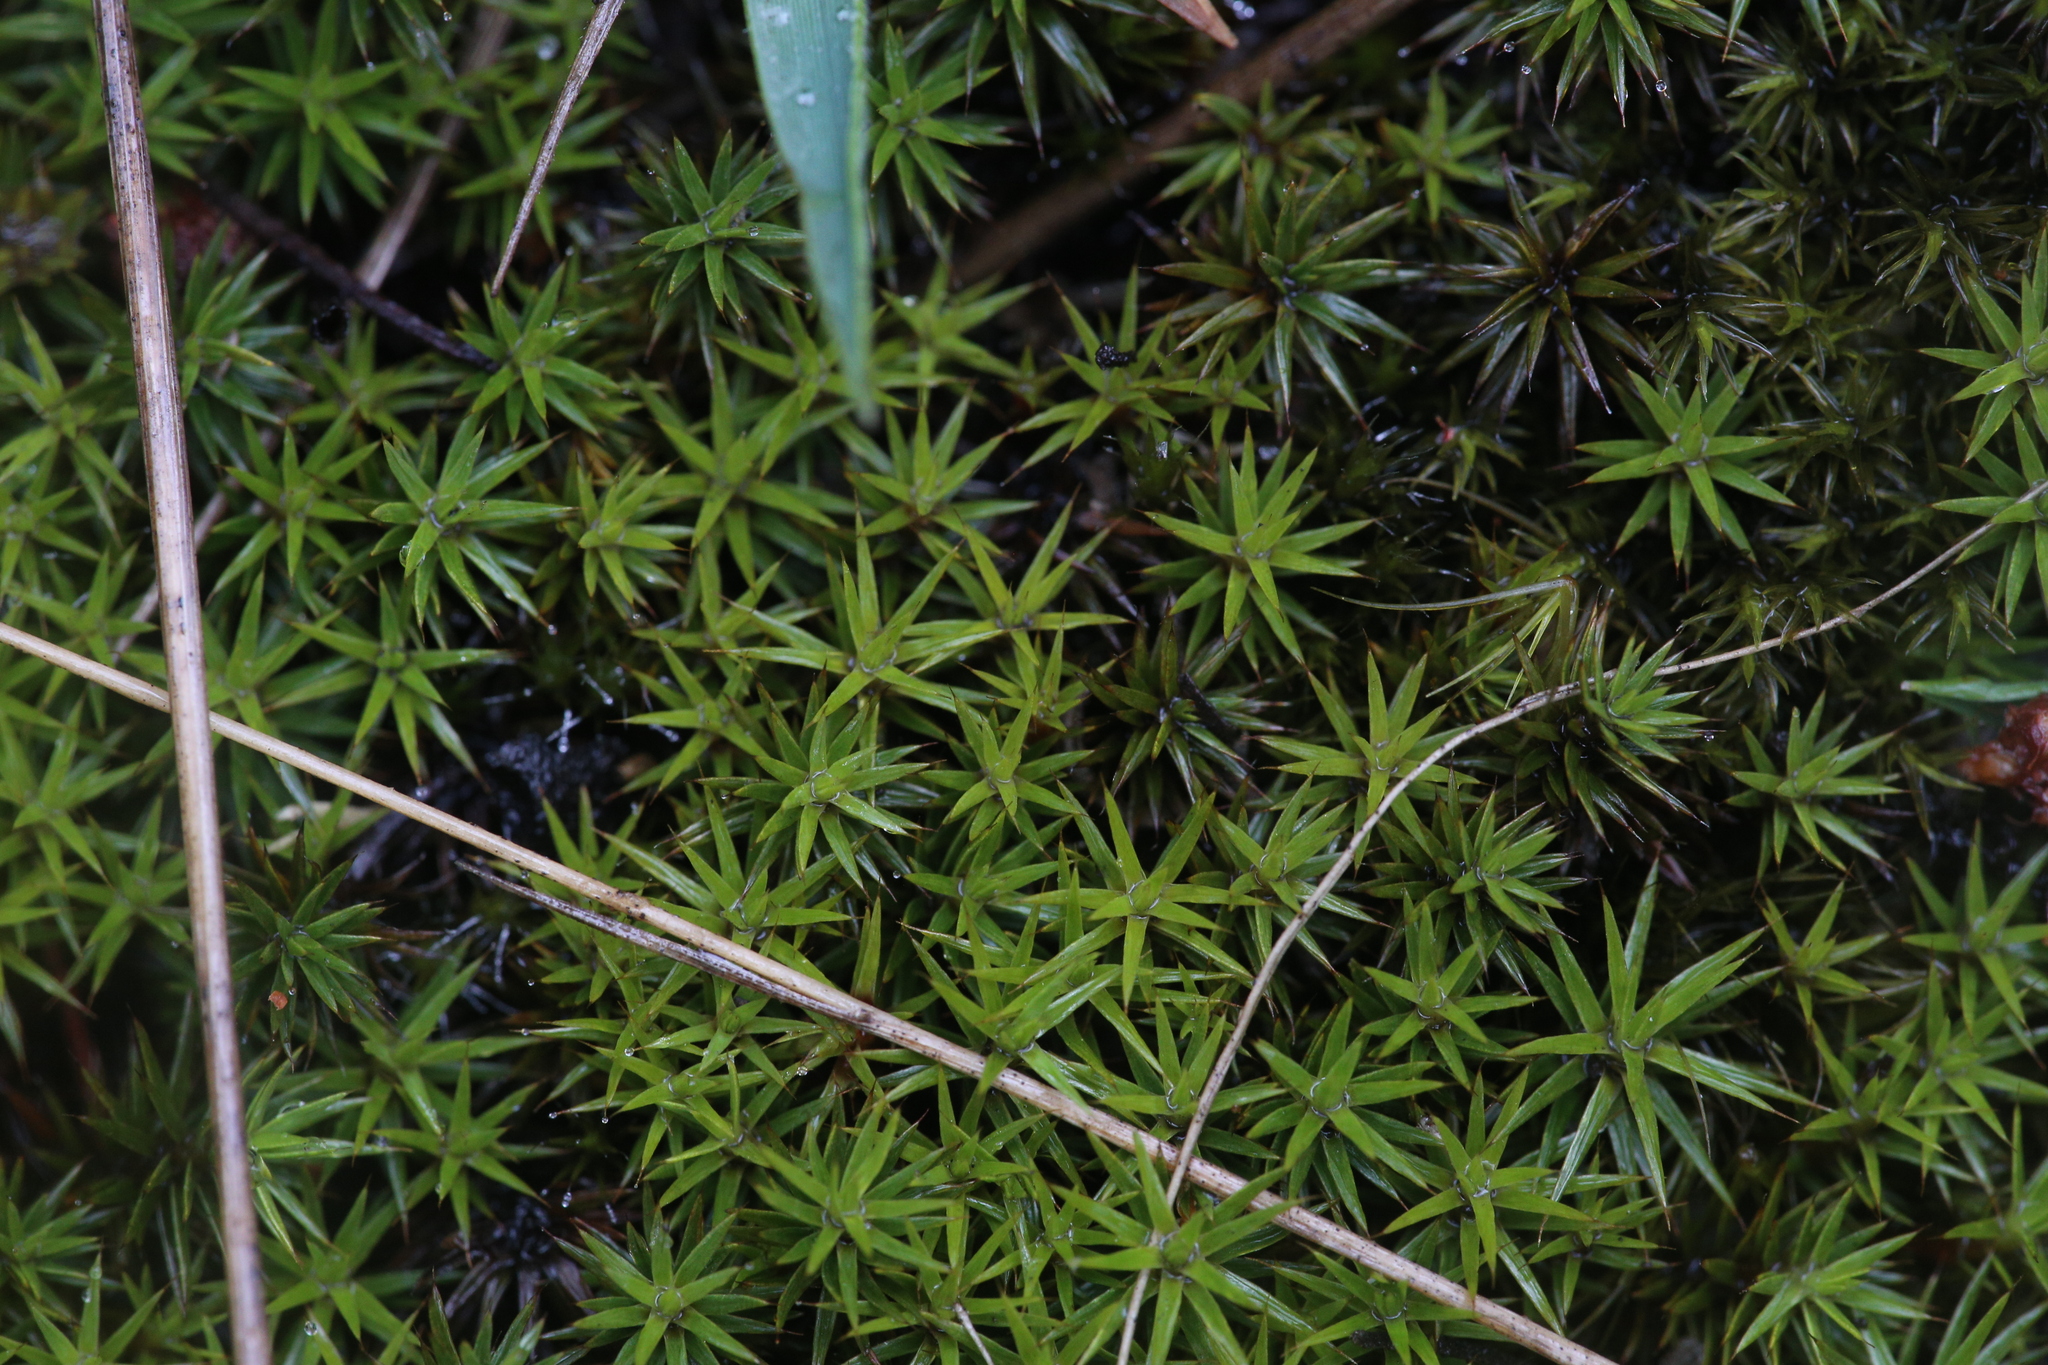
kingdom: Plantae
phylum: Bryophyta
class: Polytrichopsida
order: Polytrichales
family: Polytrichaceae
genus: Polytrichum
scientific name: Polytrichum juniperinum
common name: Juniper haircap moss
